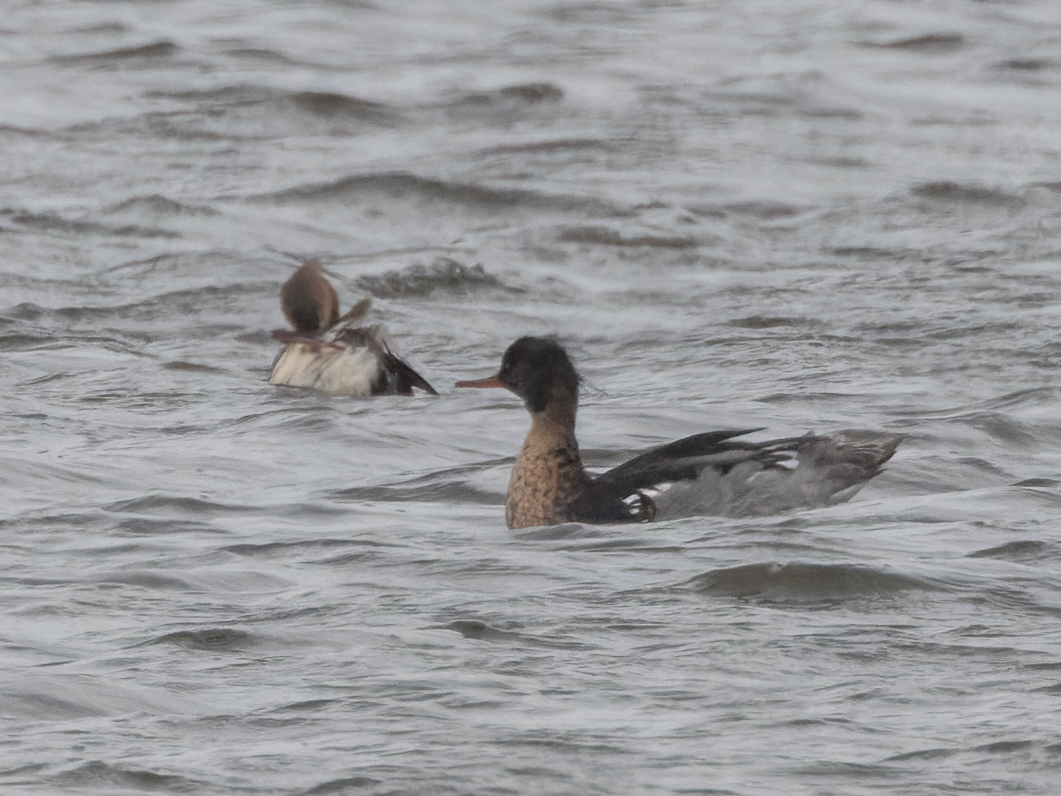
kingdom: Animalia
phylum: Chordata
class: Aves
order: Anseriformes
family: Anatidae
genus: Mergus
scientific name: Mergus serrator
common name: Red-breasted merganser
